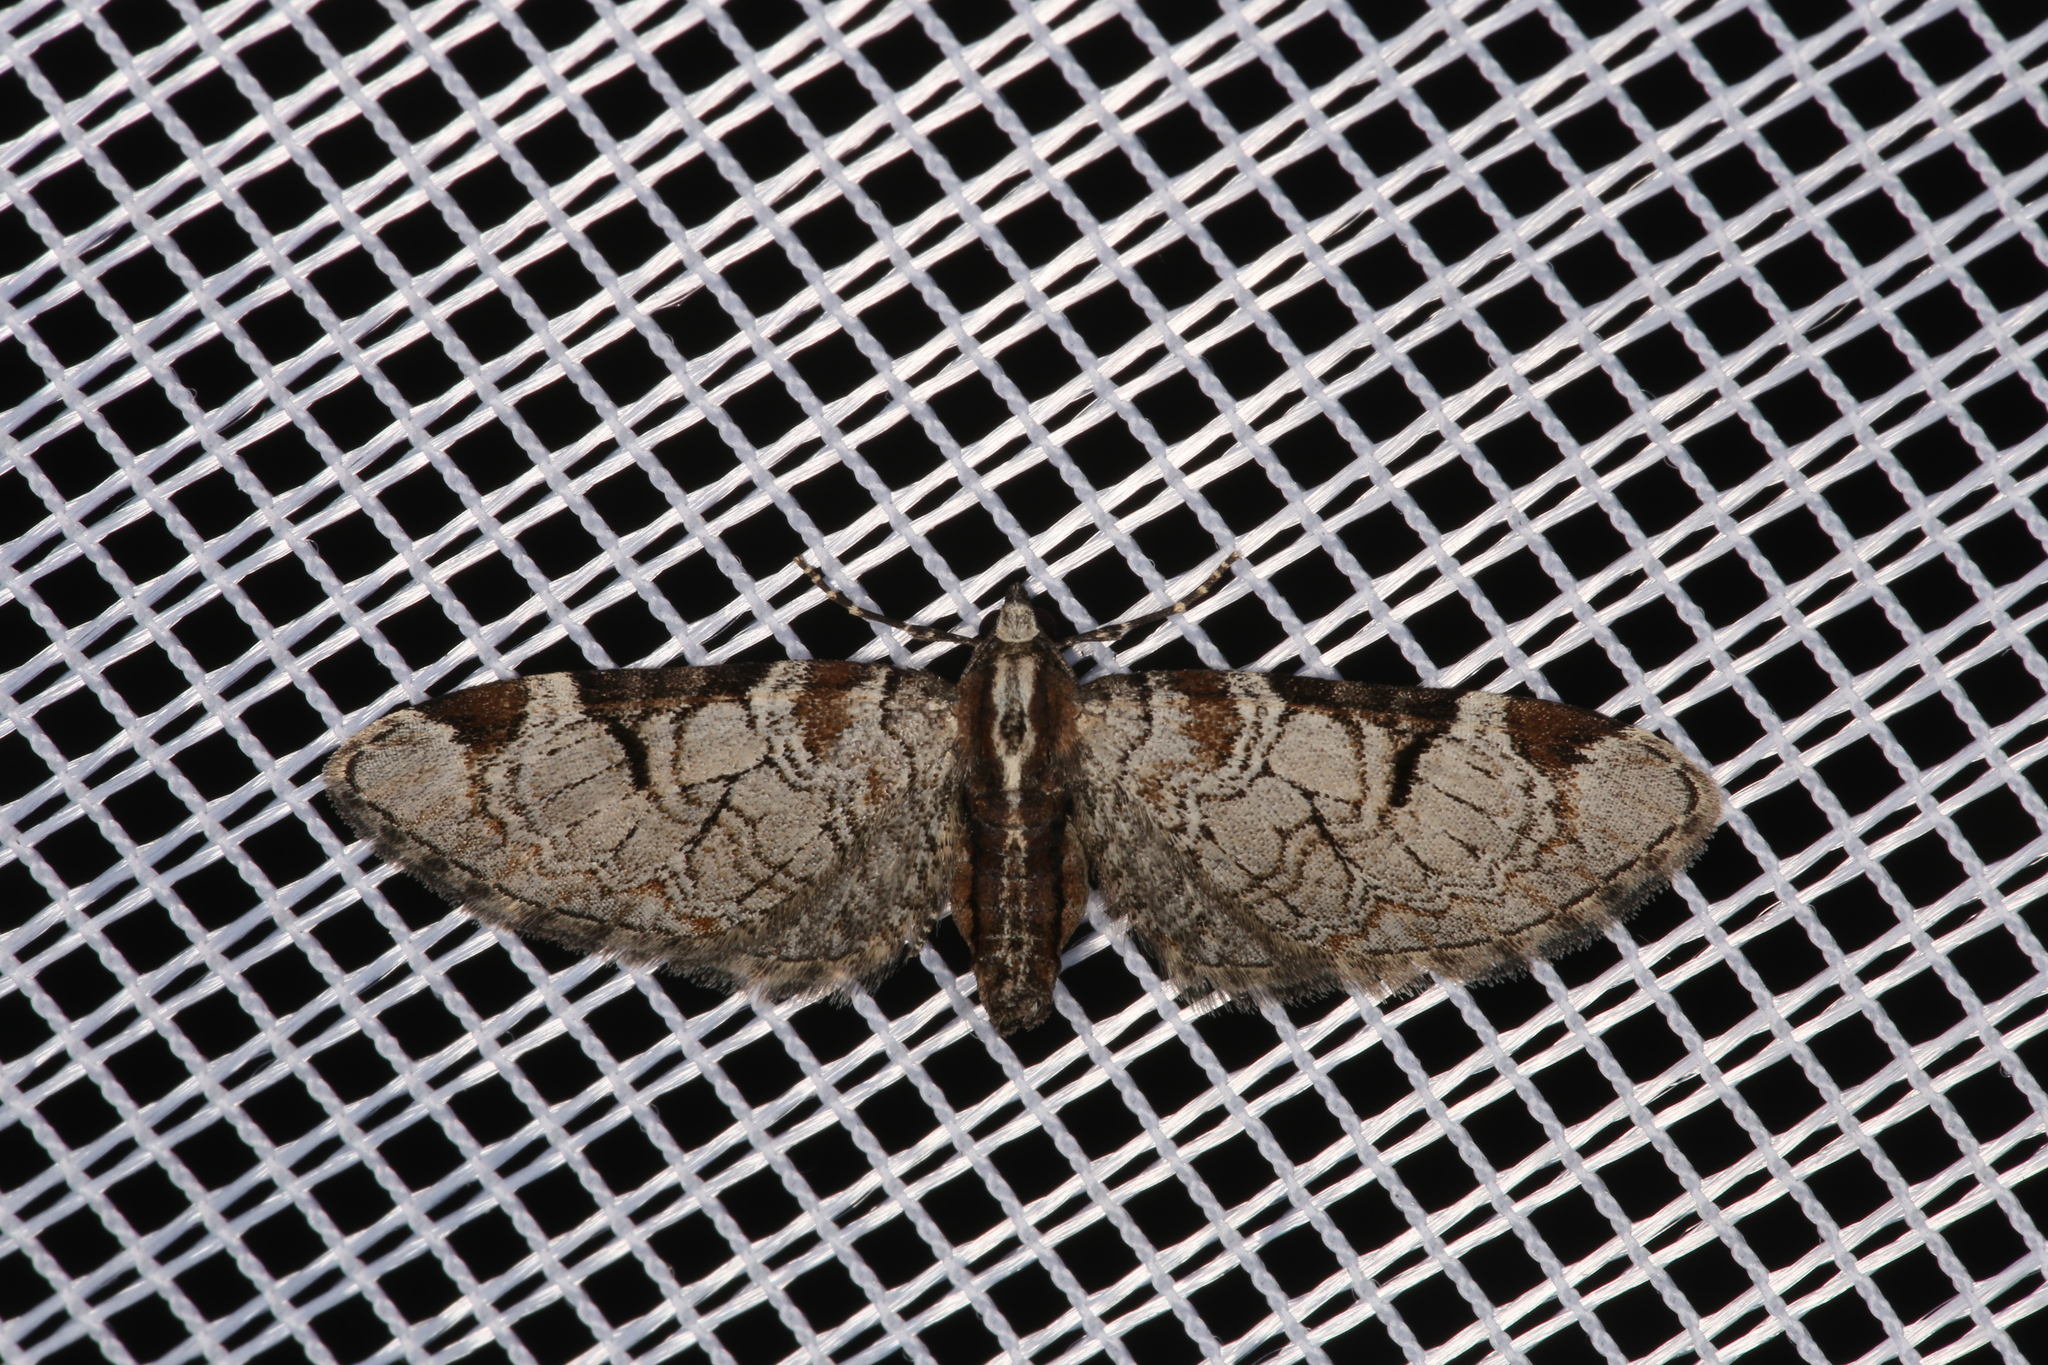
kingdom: Animalia
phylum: Arthropoda
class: Insecta
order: Lepidoptera
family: Geometridae
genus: Eupithecia
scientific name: Eupithecia insigniata
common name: Pinion-spotted pug
